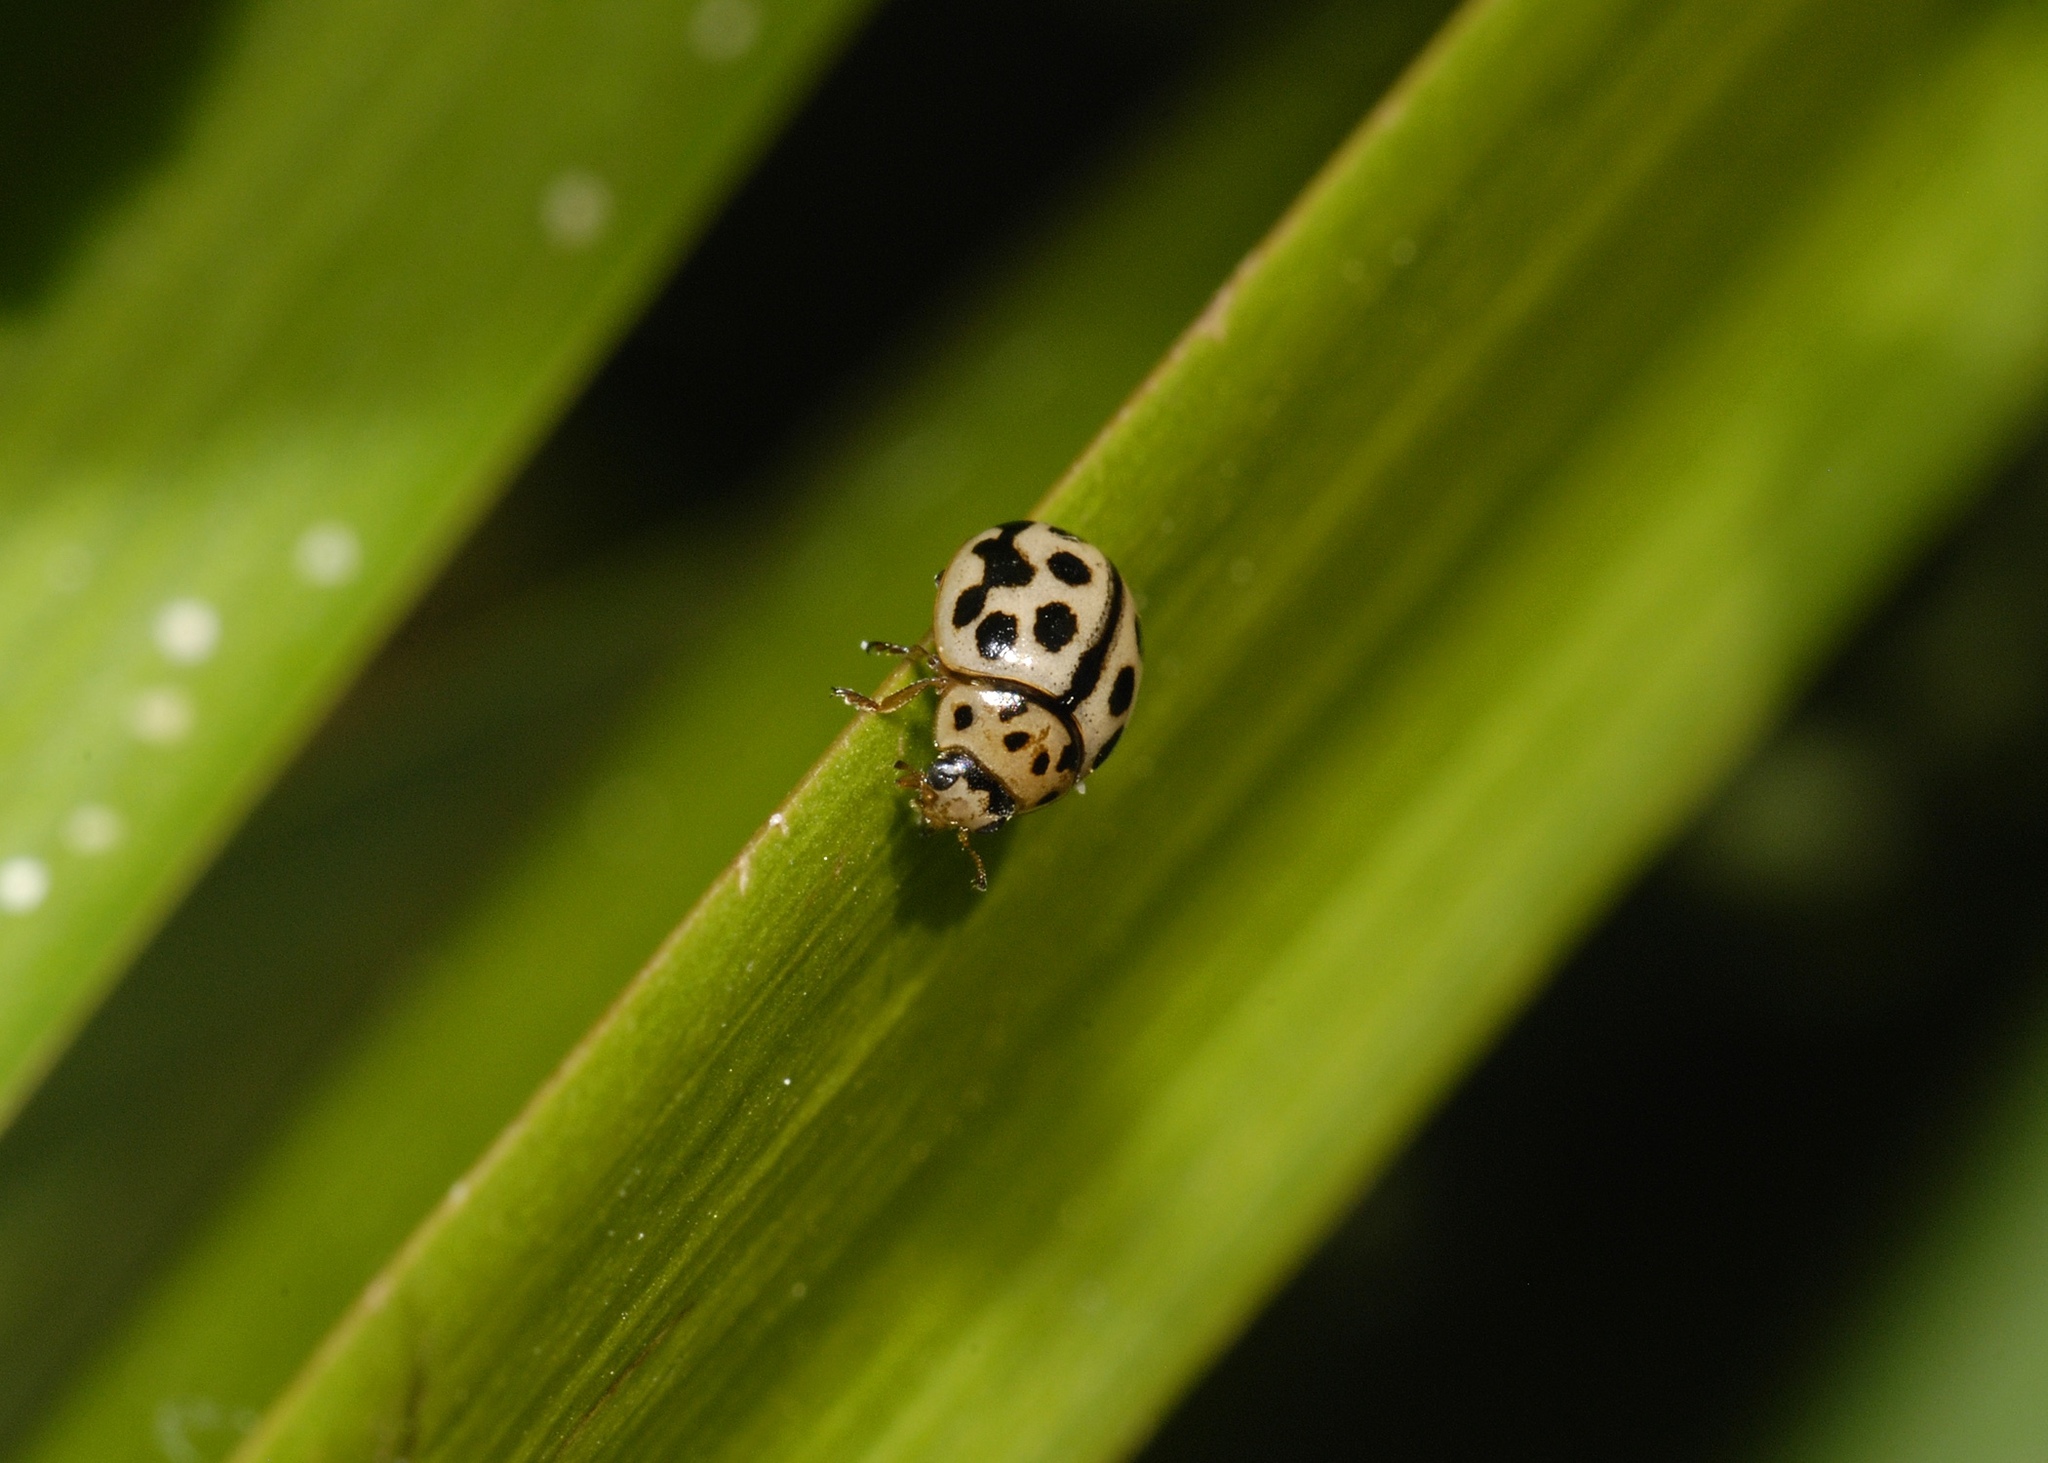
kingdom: Animalia
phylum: Arthropoda
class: Insecta
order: Coleoptera
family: Coccinellidae
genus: Tytthaspis
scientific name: Tytthaspis sedecimpunctata
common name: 16-spot ladybird
